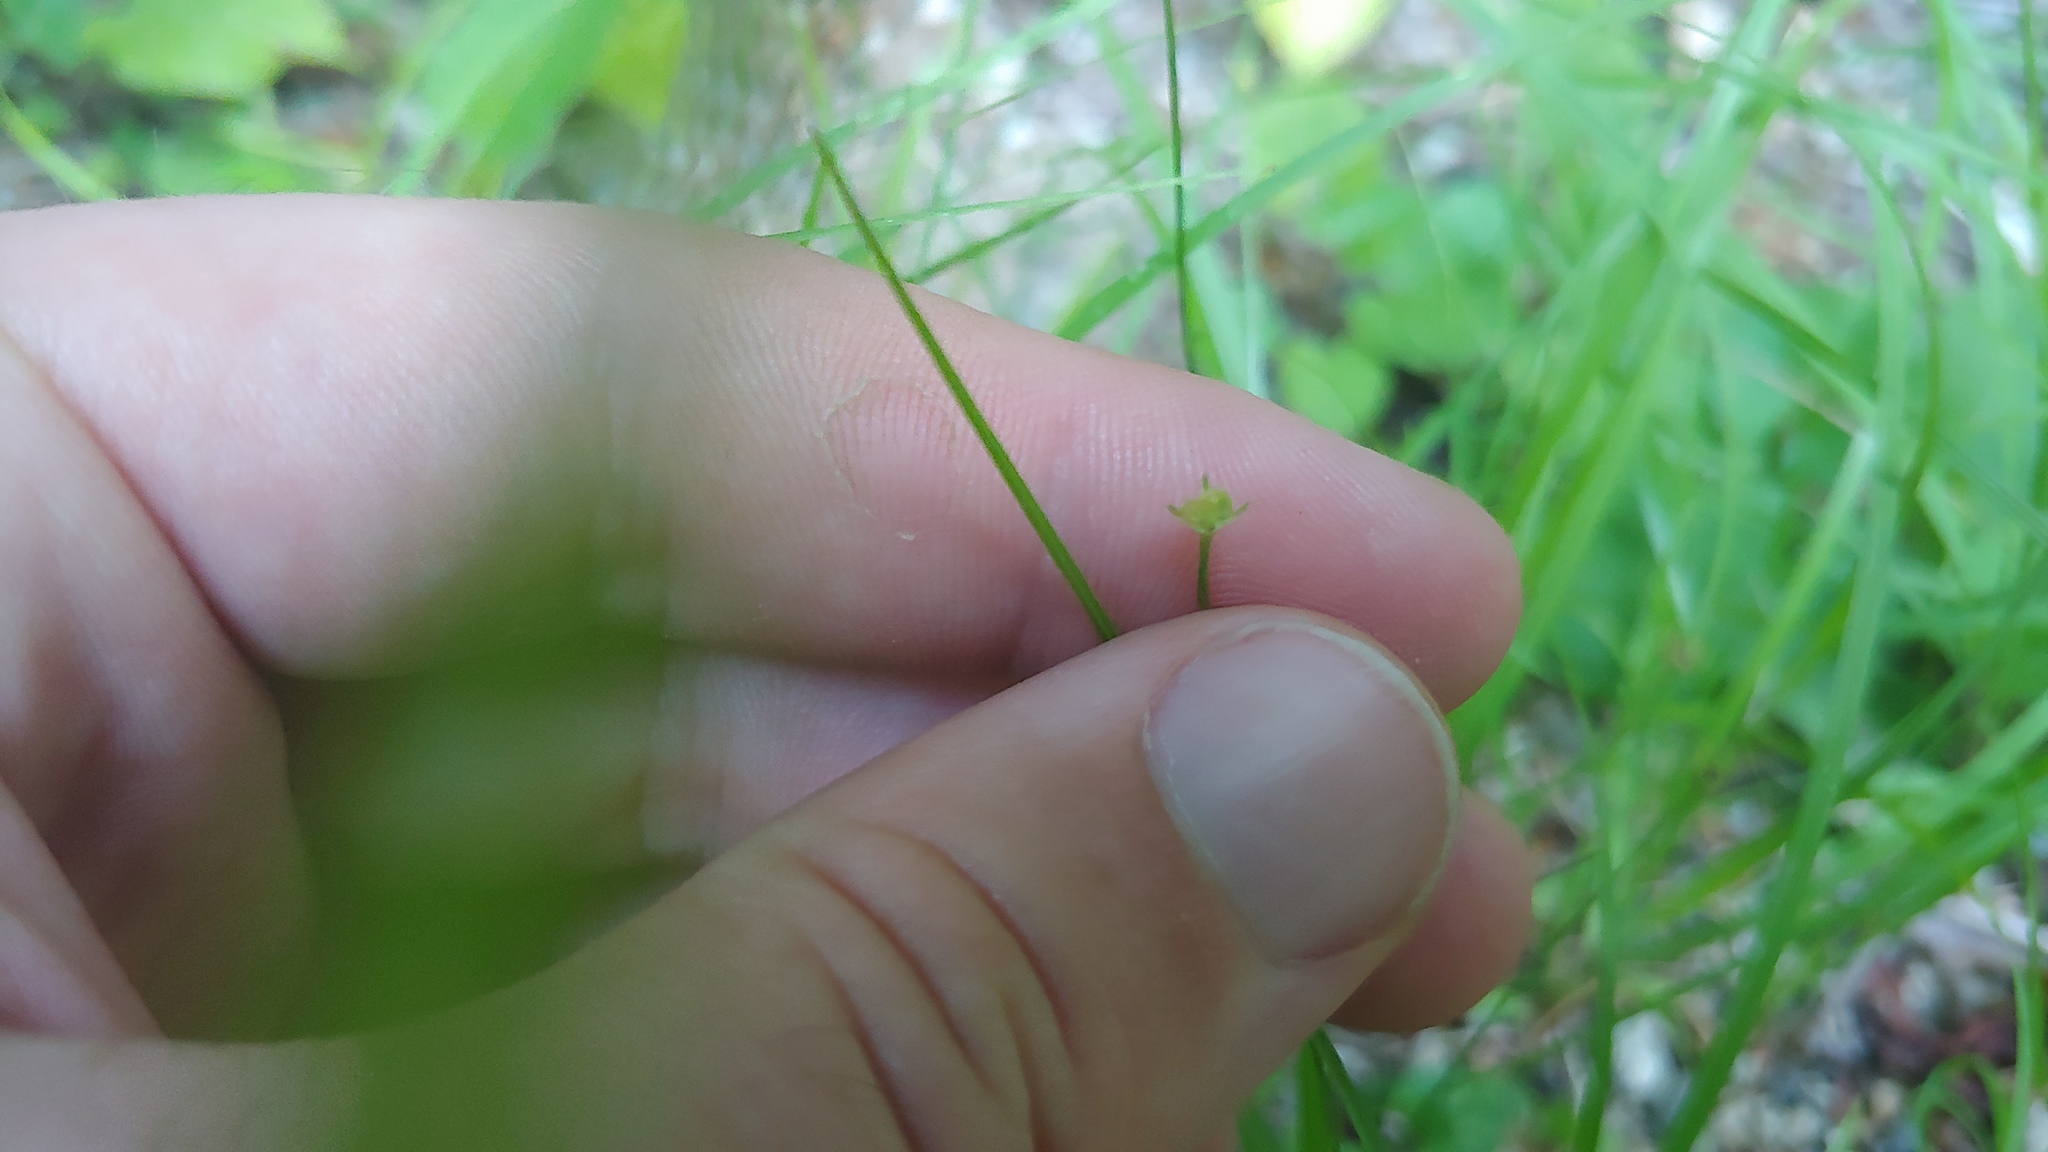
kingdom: Plantae
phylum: Tracheophyta
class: Magnoliopsida
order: Gentianales
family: Rubiaceae
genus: Houstonia
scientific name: Houstonia caerulea
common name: Bluets
